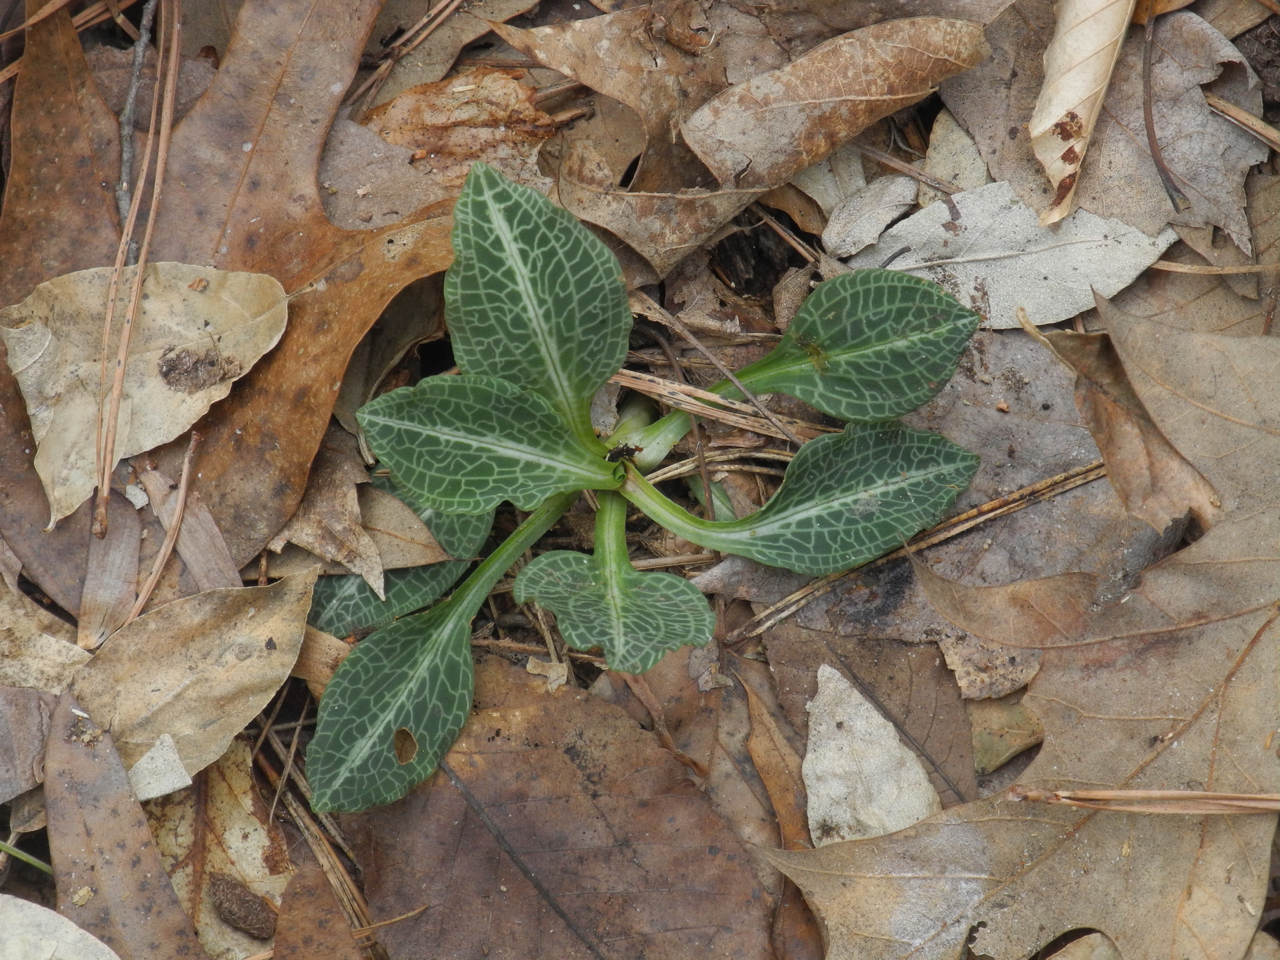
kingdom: Plantae
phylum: Tracheophyta
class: Liliopsida
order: Asparagales
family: Orchidaceae
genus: Goodyera
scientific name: Goodyera pubescens
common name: Downy rattlesnake-plantain
